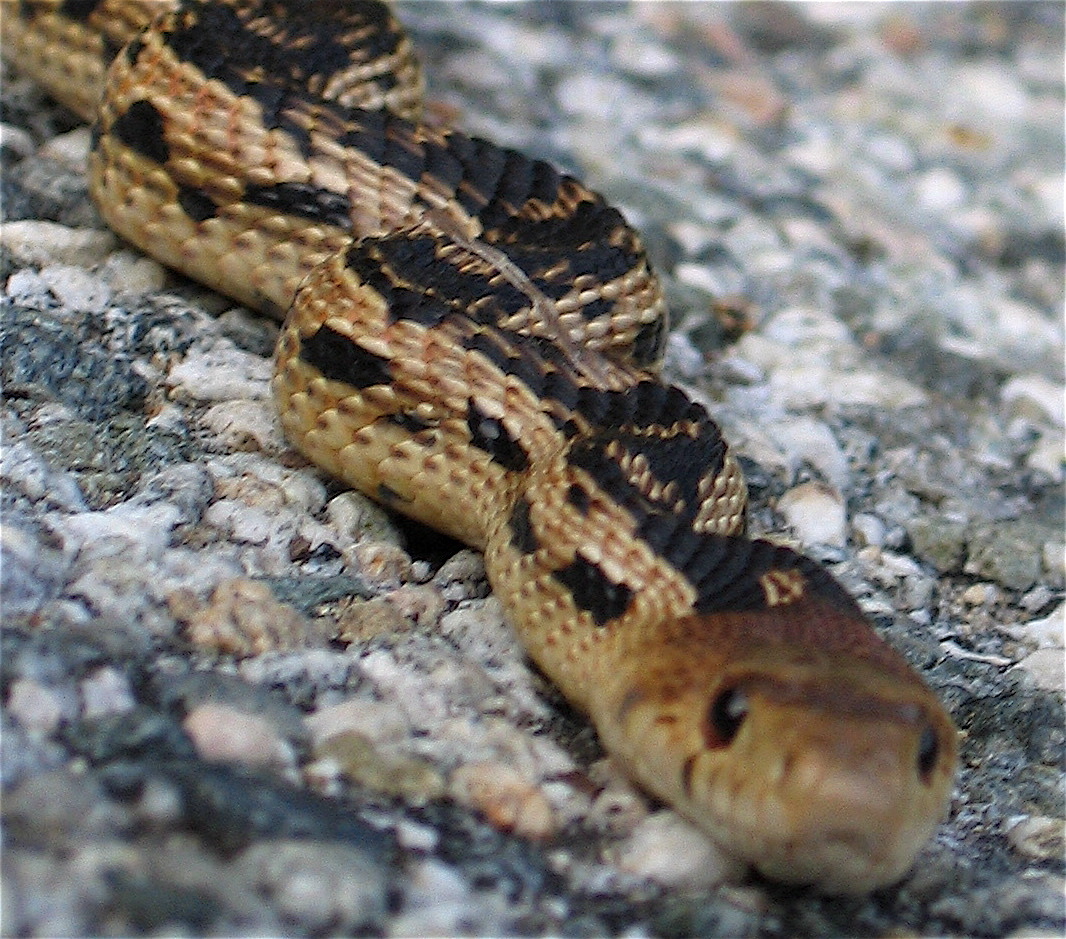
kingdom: Animalia
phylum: Chordata
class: Squamata
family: Colubridae
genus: Pituophis
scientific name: Pituophis catenifer
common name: Gopher snake
